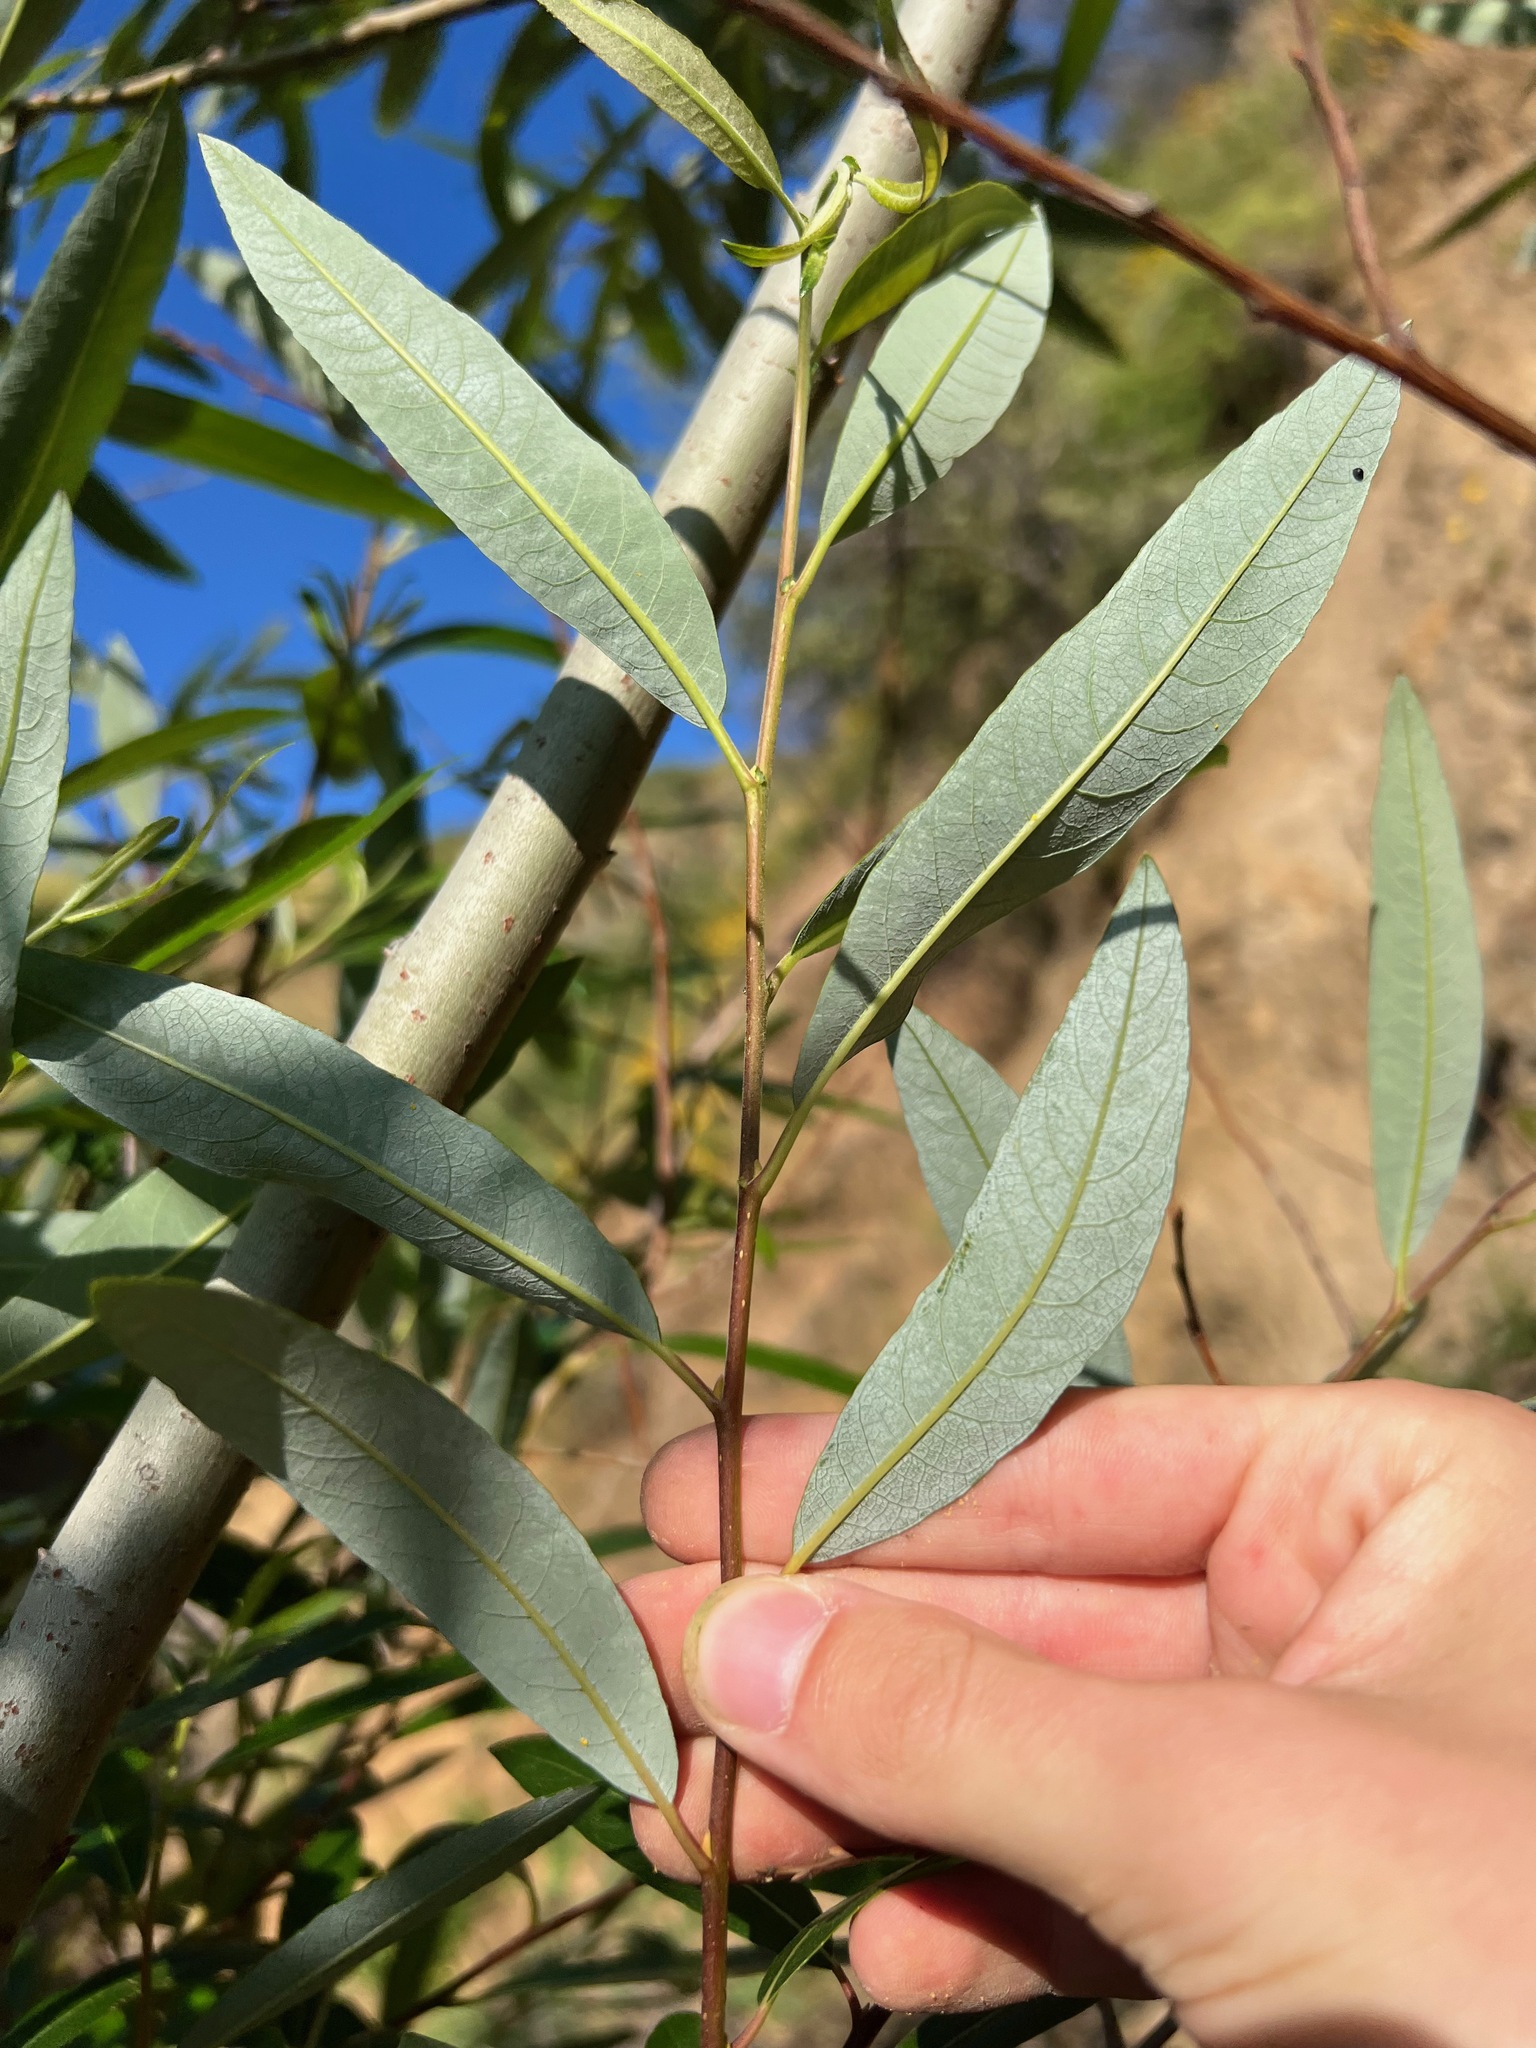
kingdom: Plantae
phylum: Tracheophyta
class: Magnoliopsida
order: Malpighiales
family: Salicaceae
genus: Salix
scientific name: Salix laevigata
